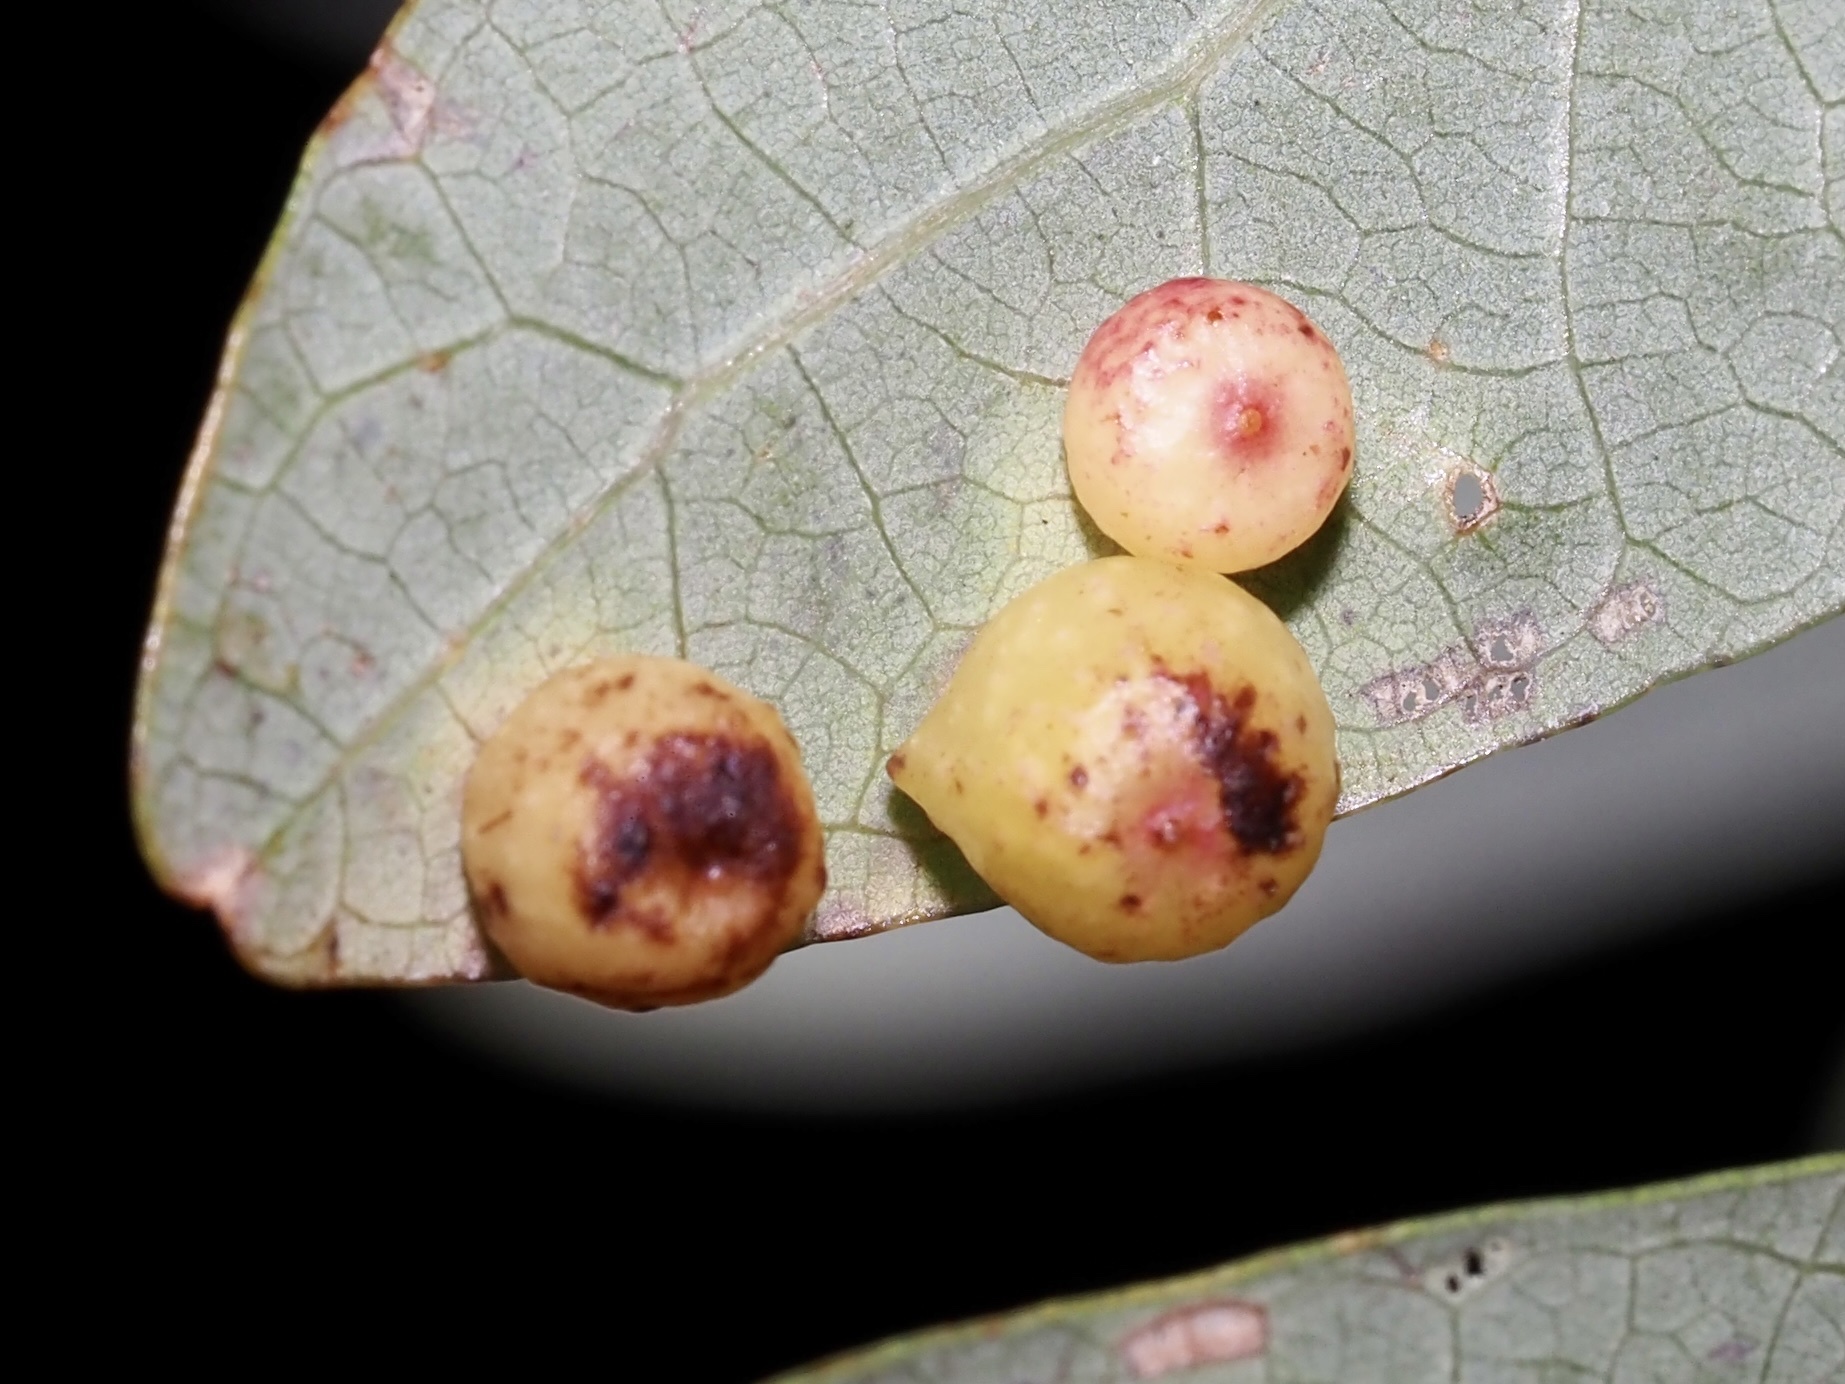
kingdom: Animalia
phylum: Arthropoda
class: Insecta
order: Hymenoptera
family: Cynipidae
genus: Andricus
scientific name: Andricus
